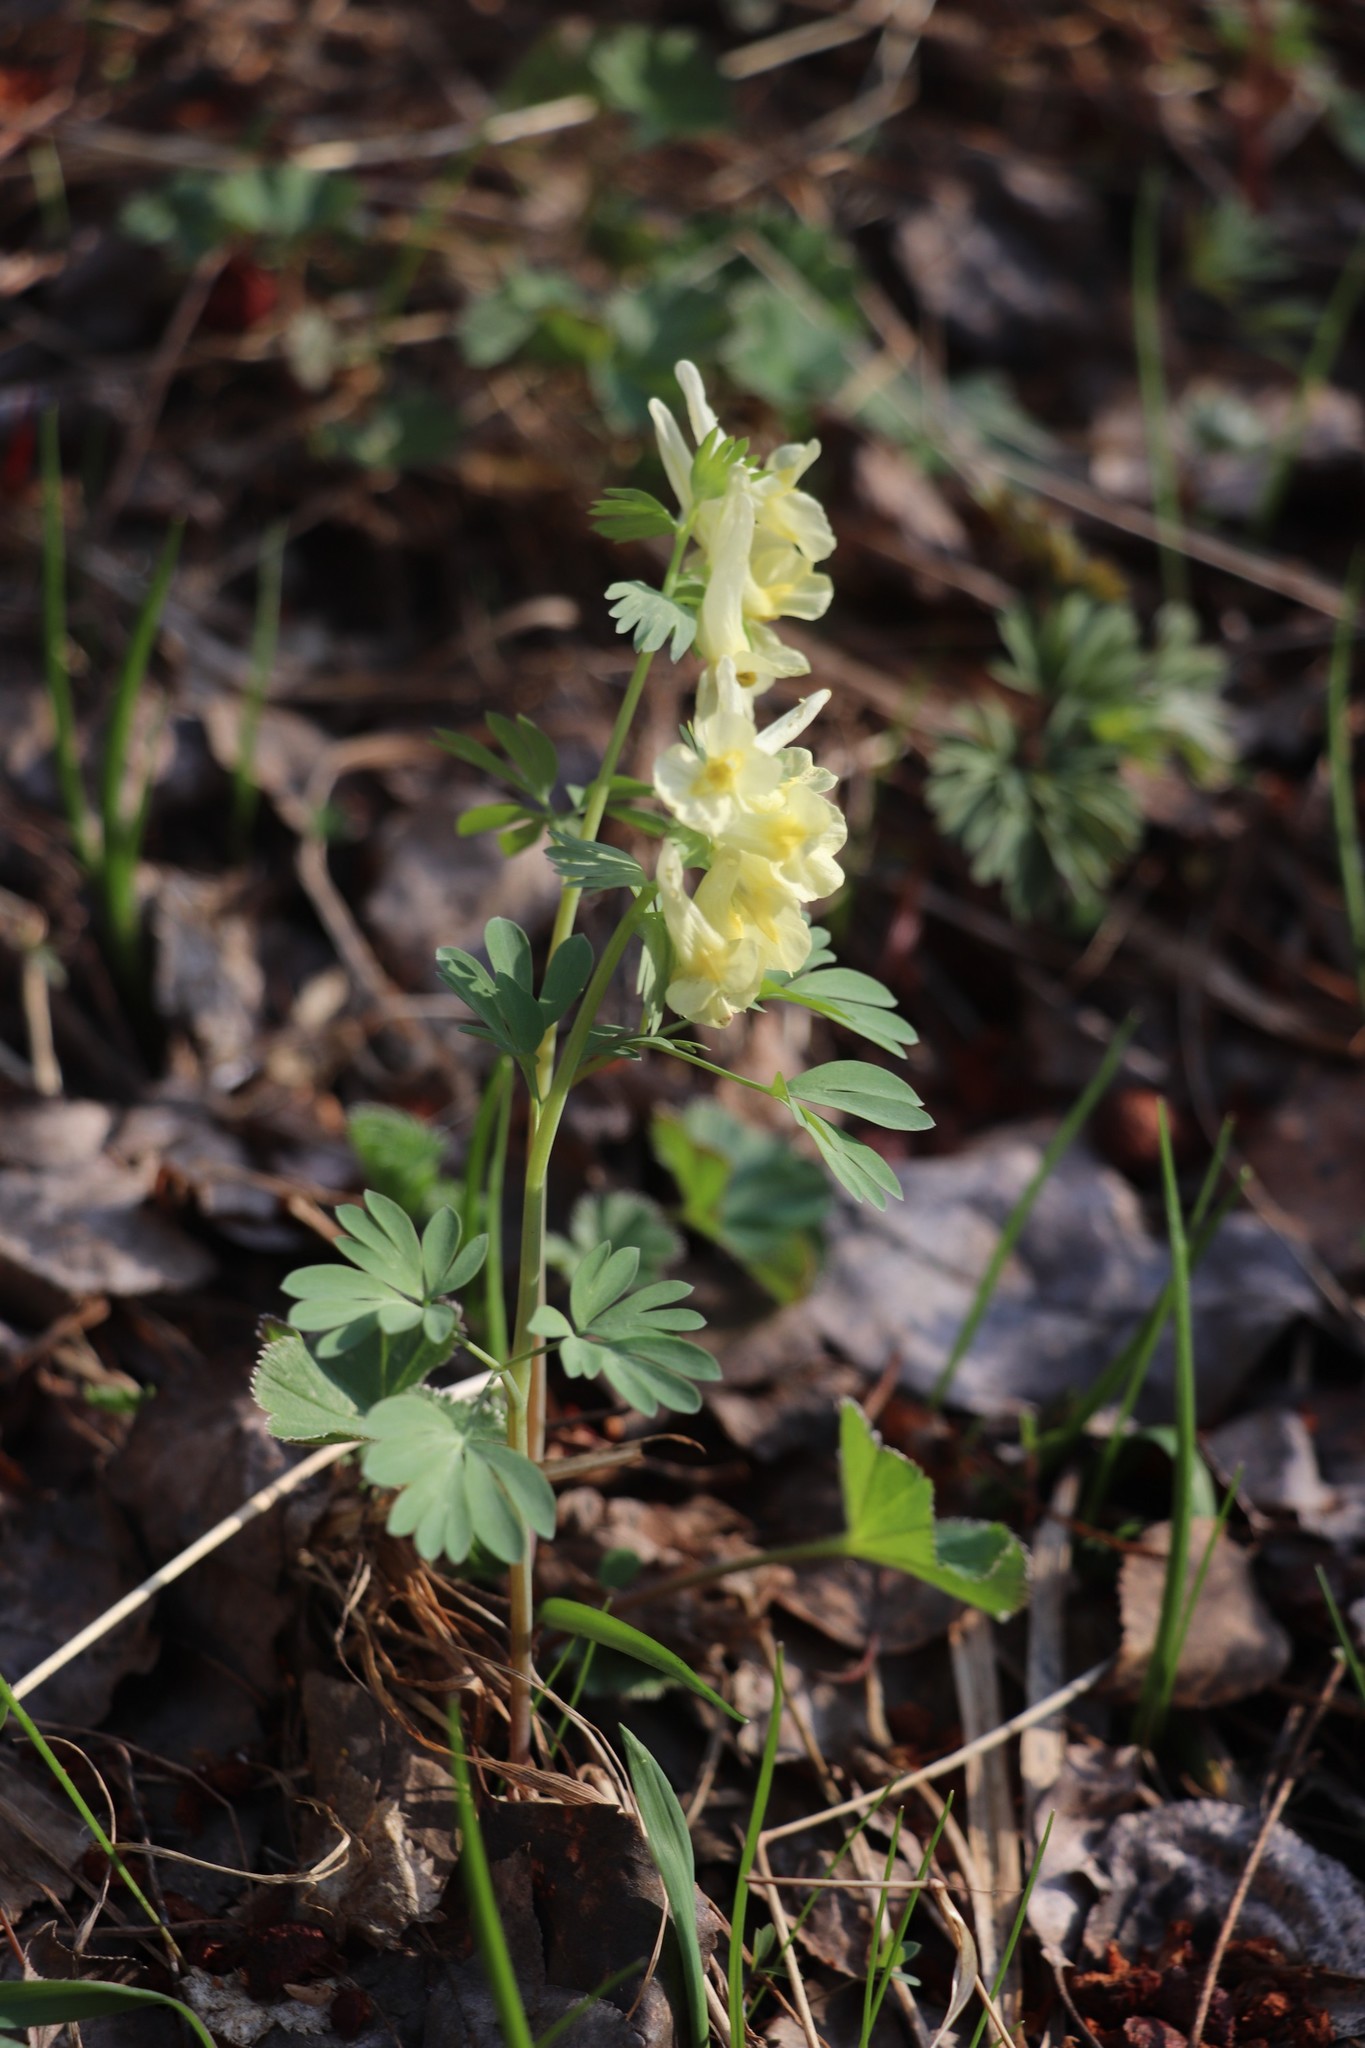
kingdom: Plantae
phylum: Tracheophyta
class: Magnoliopsida
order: Ranunculales
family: Papaveraceae
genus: Corydalis
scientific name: Corydalis bracteata
